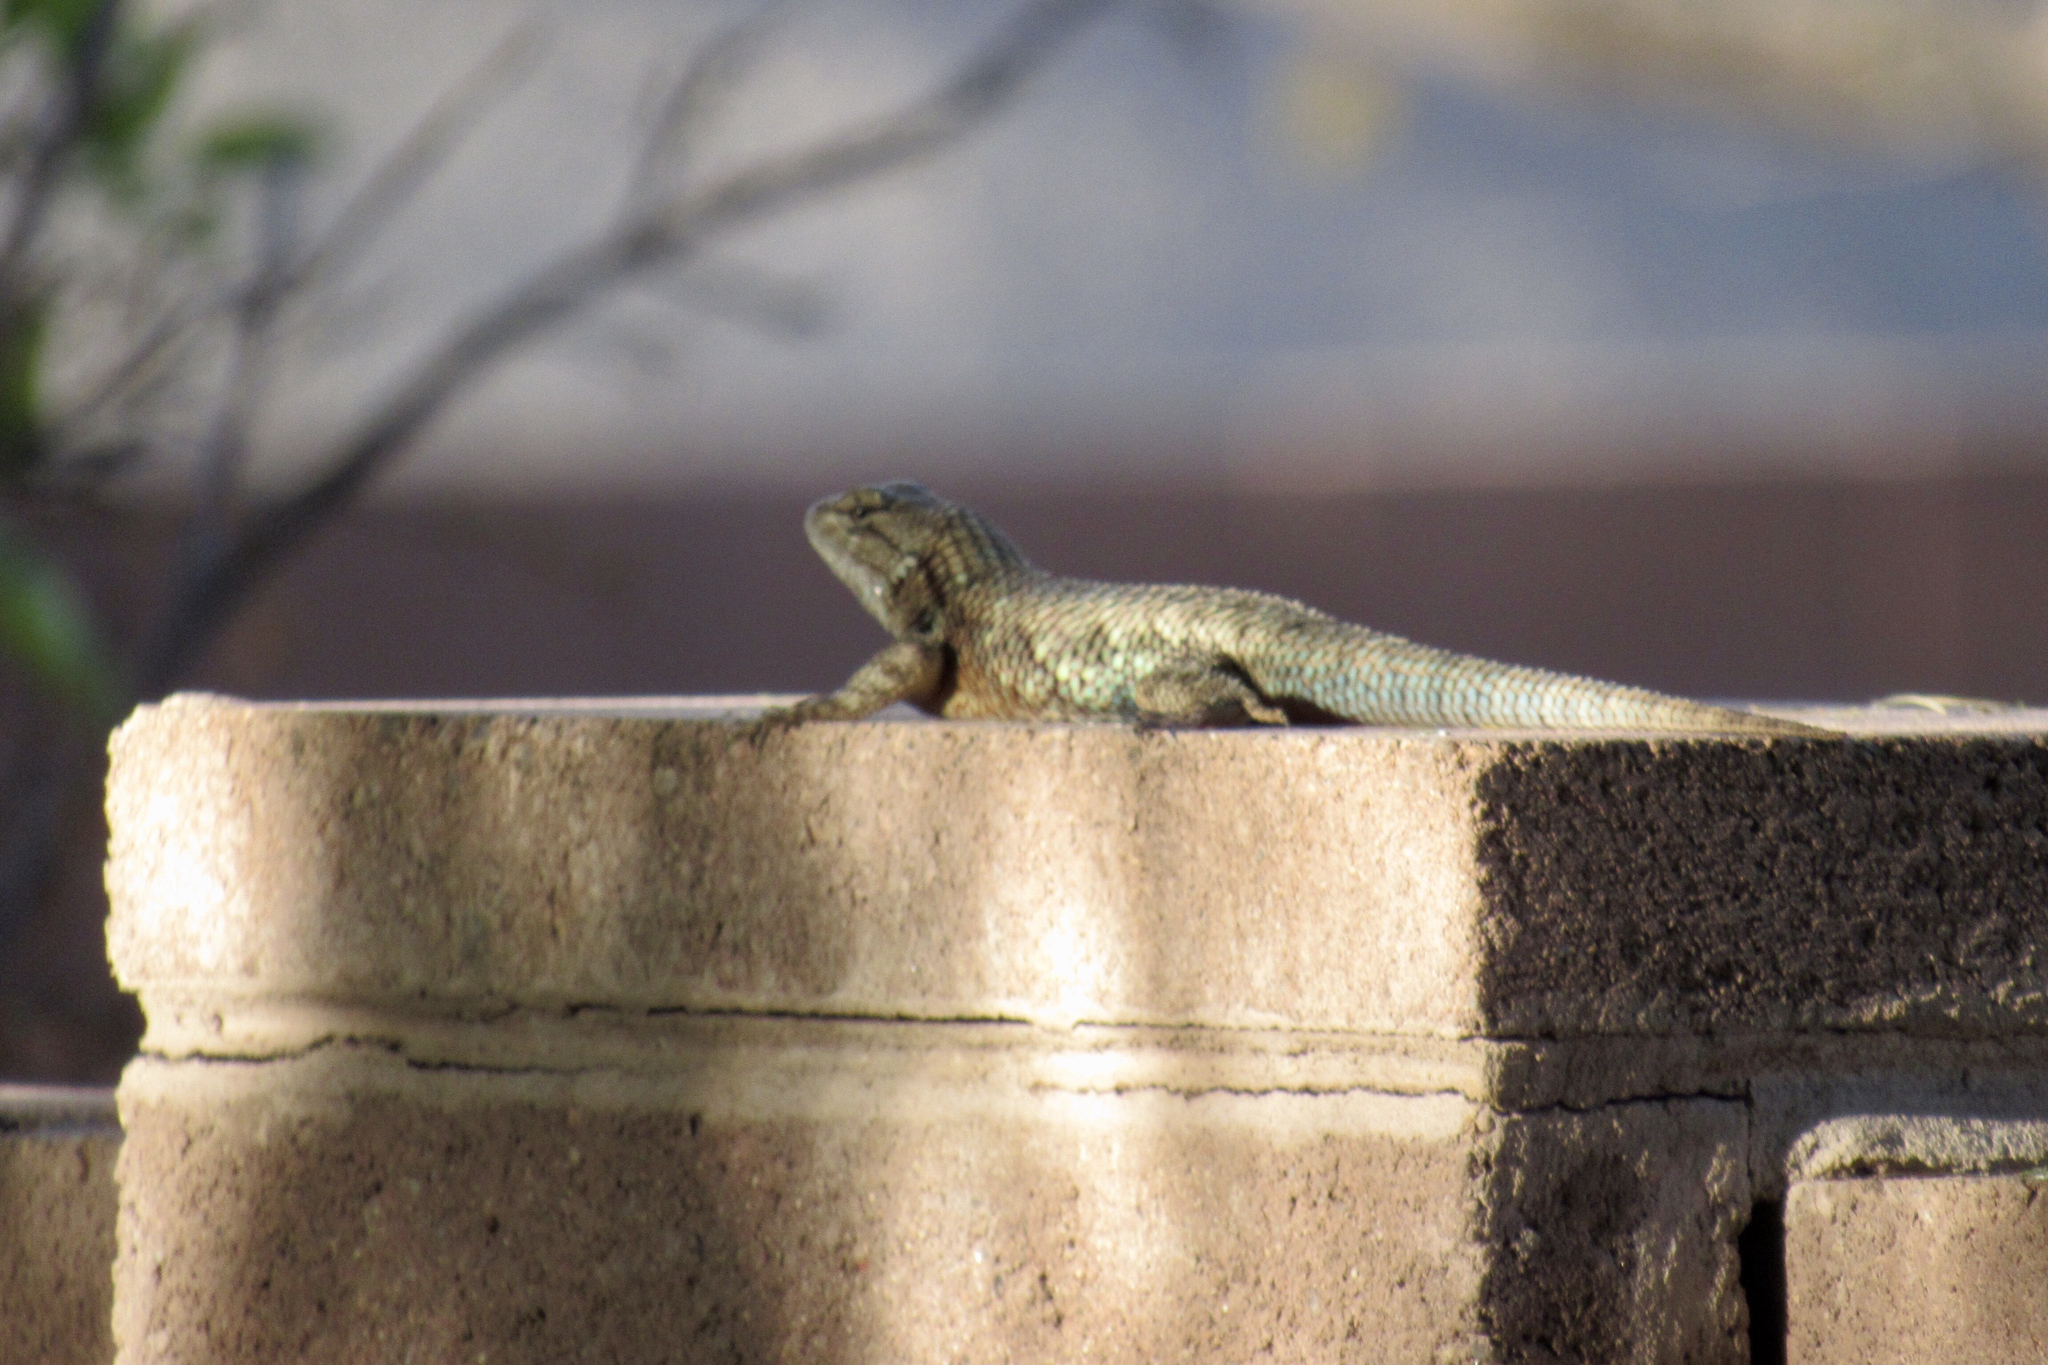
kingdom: Animalia
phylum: Chordata
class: Squamata
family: Phrynosomatidae
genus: Sceloporus
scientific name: Sceloporus magister
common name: Desert spiny lizard
